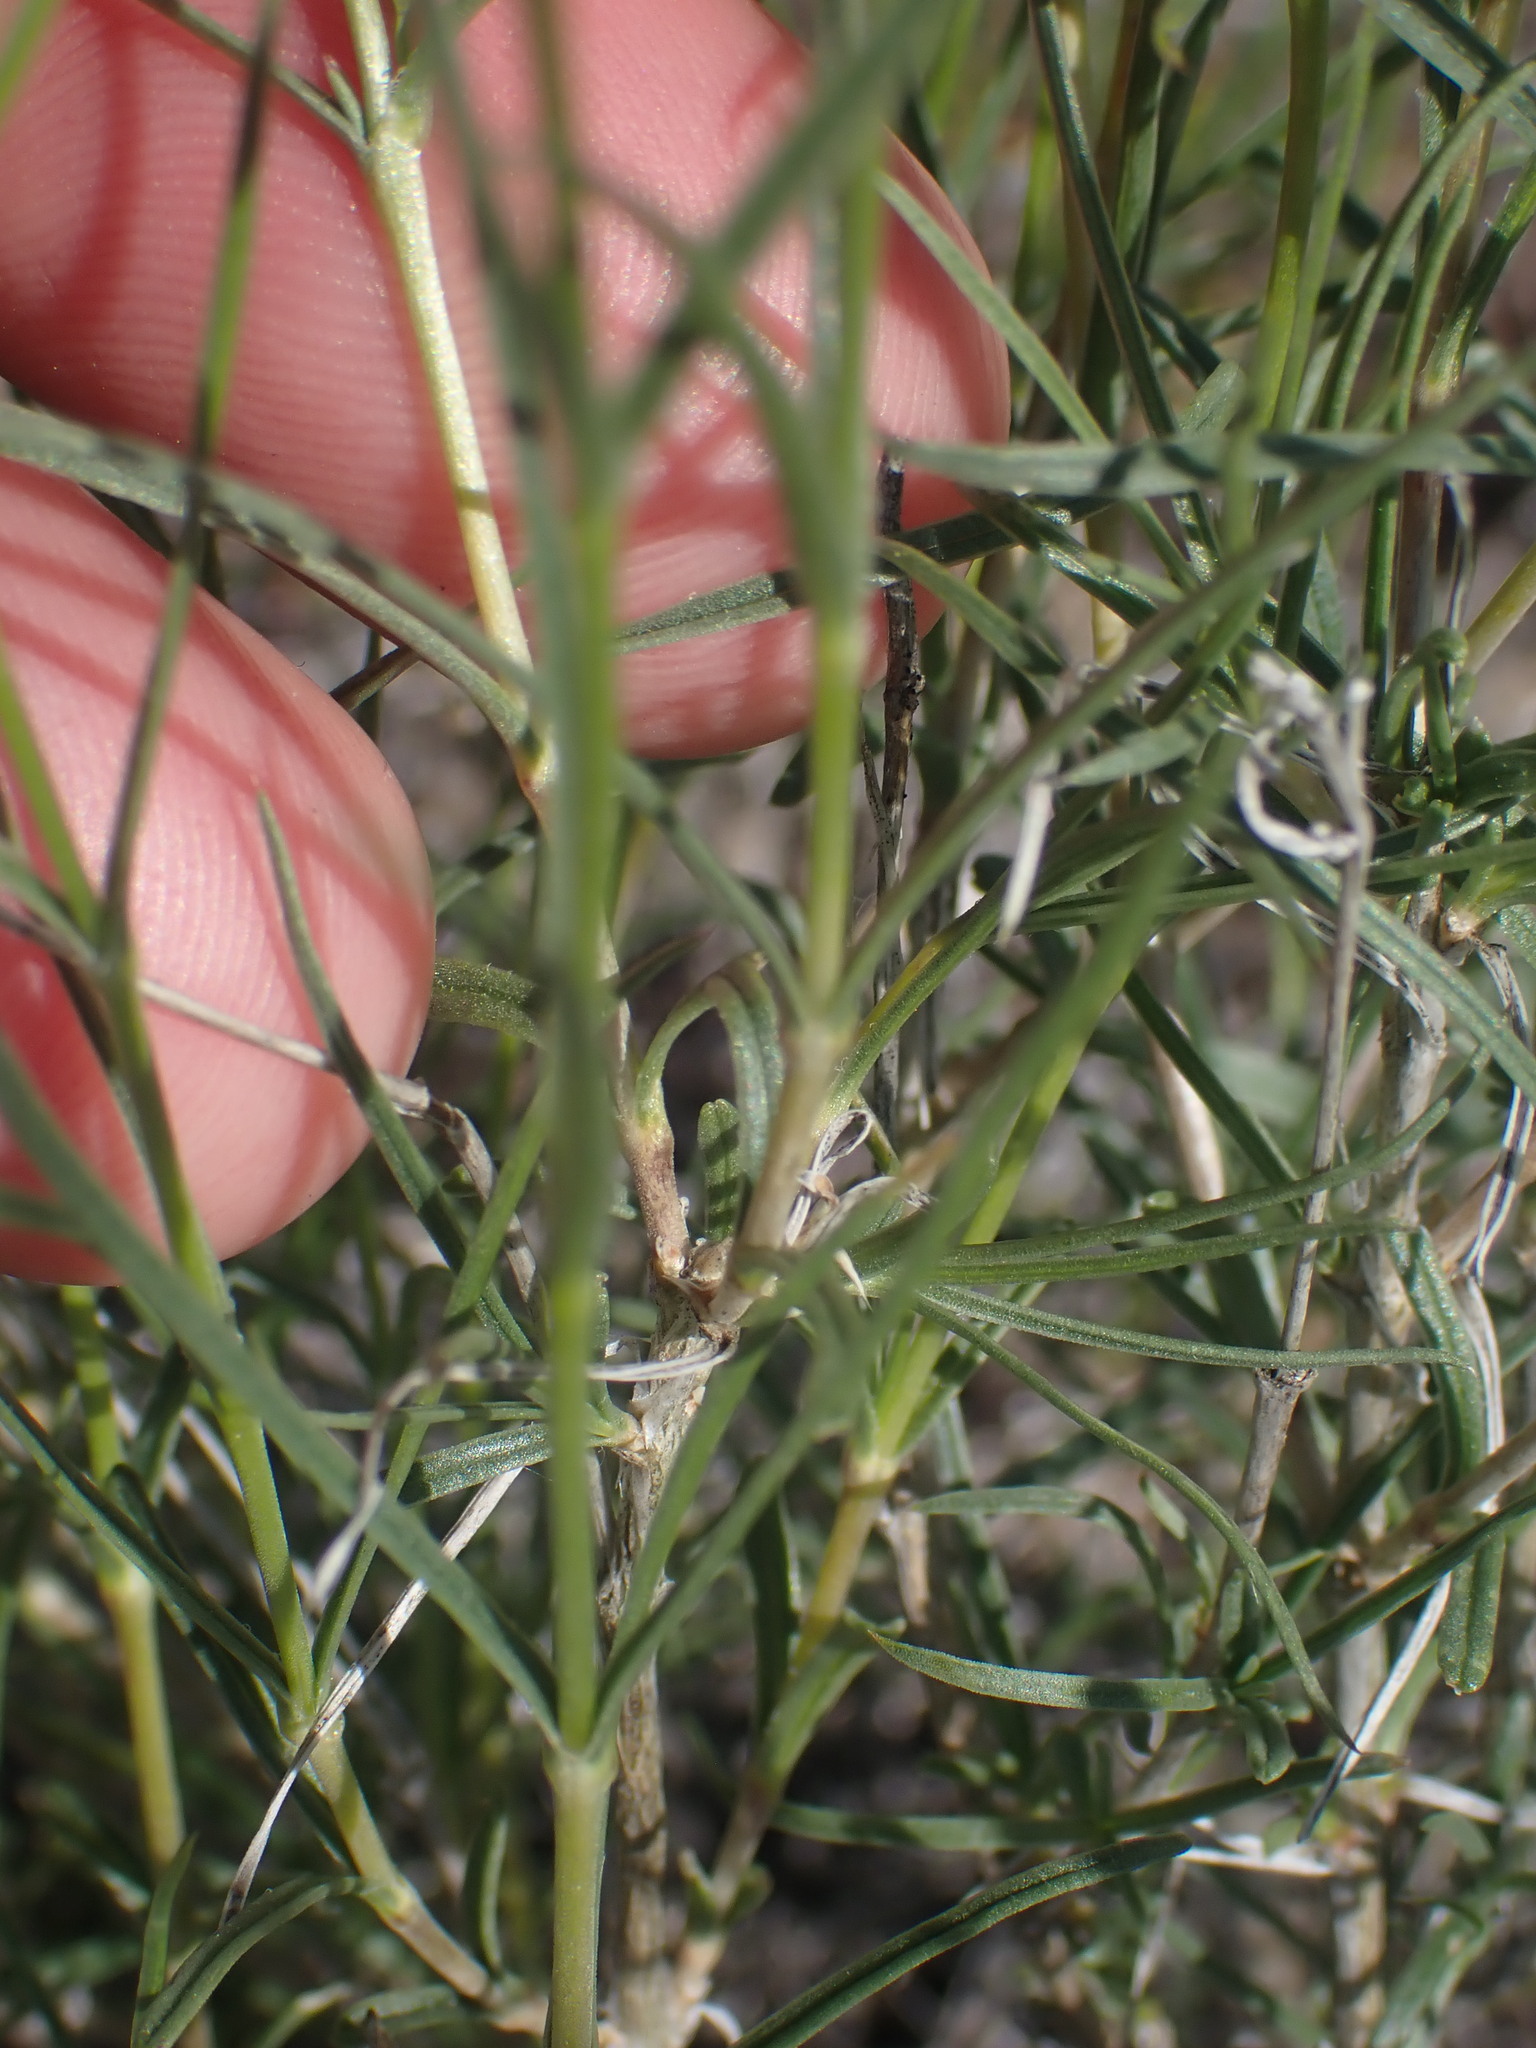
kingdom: Plantae
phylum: Tracheophyta
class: Magnoliopsida
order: Ericales
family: Polemoniaceae
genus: Phlox
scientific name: Phlox longifolia
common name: Longleaf phlox
